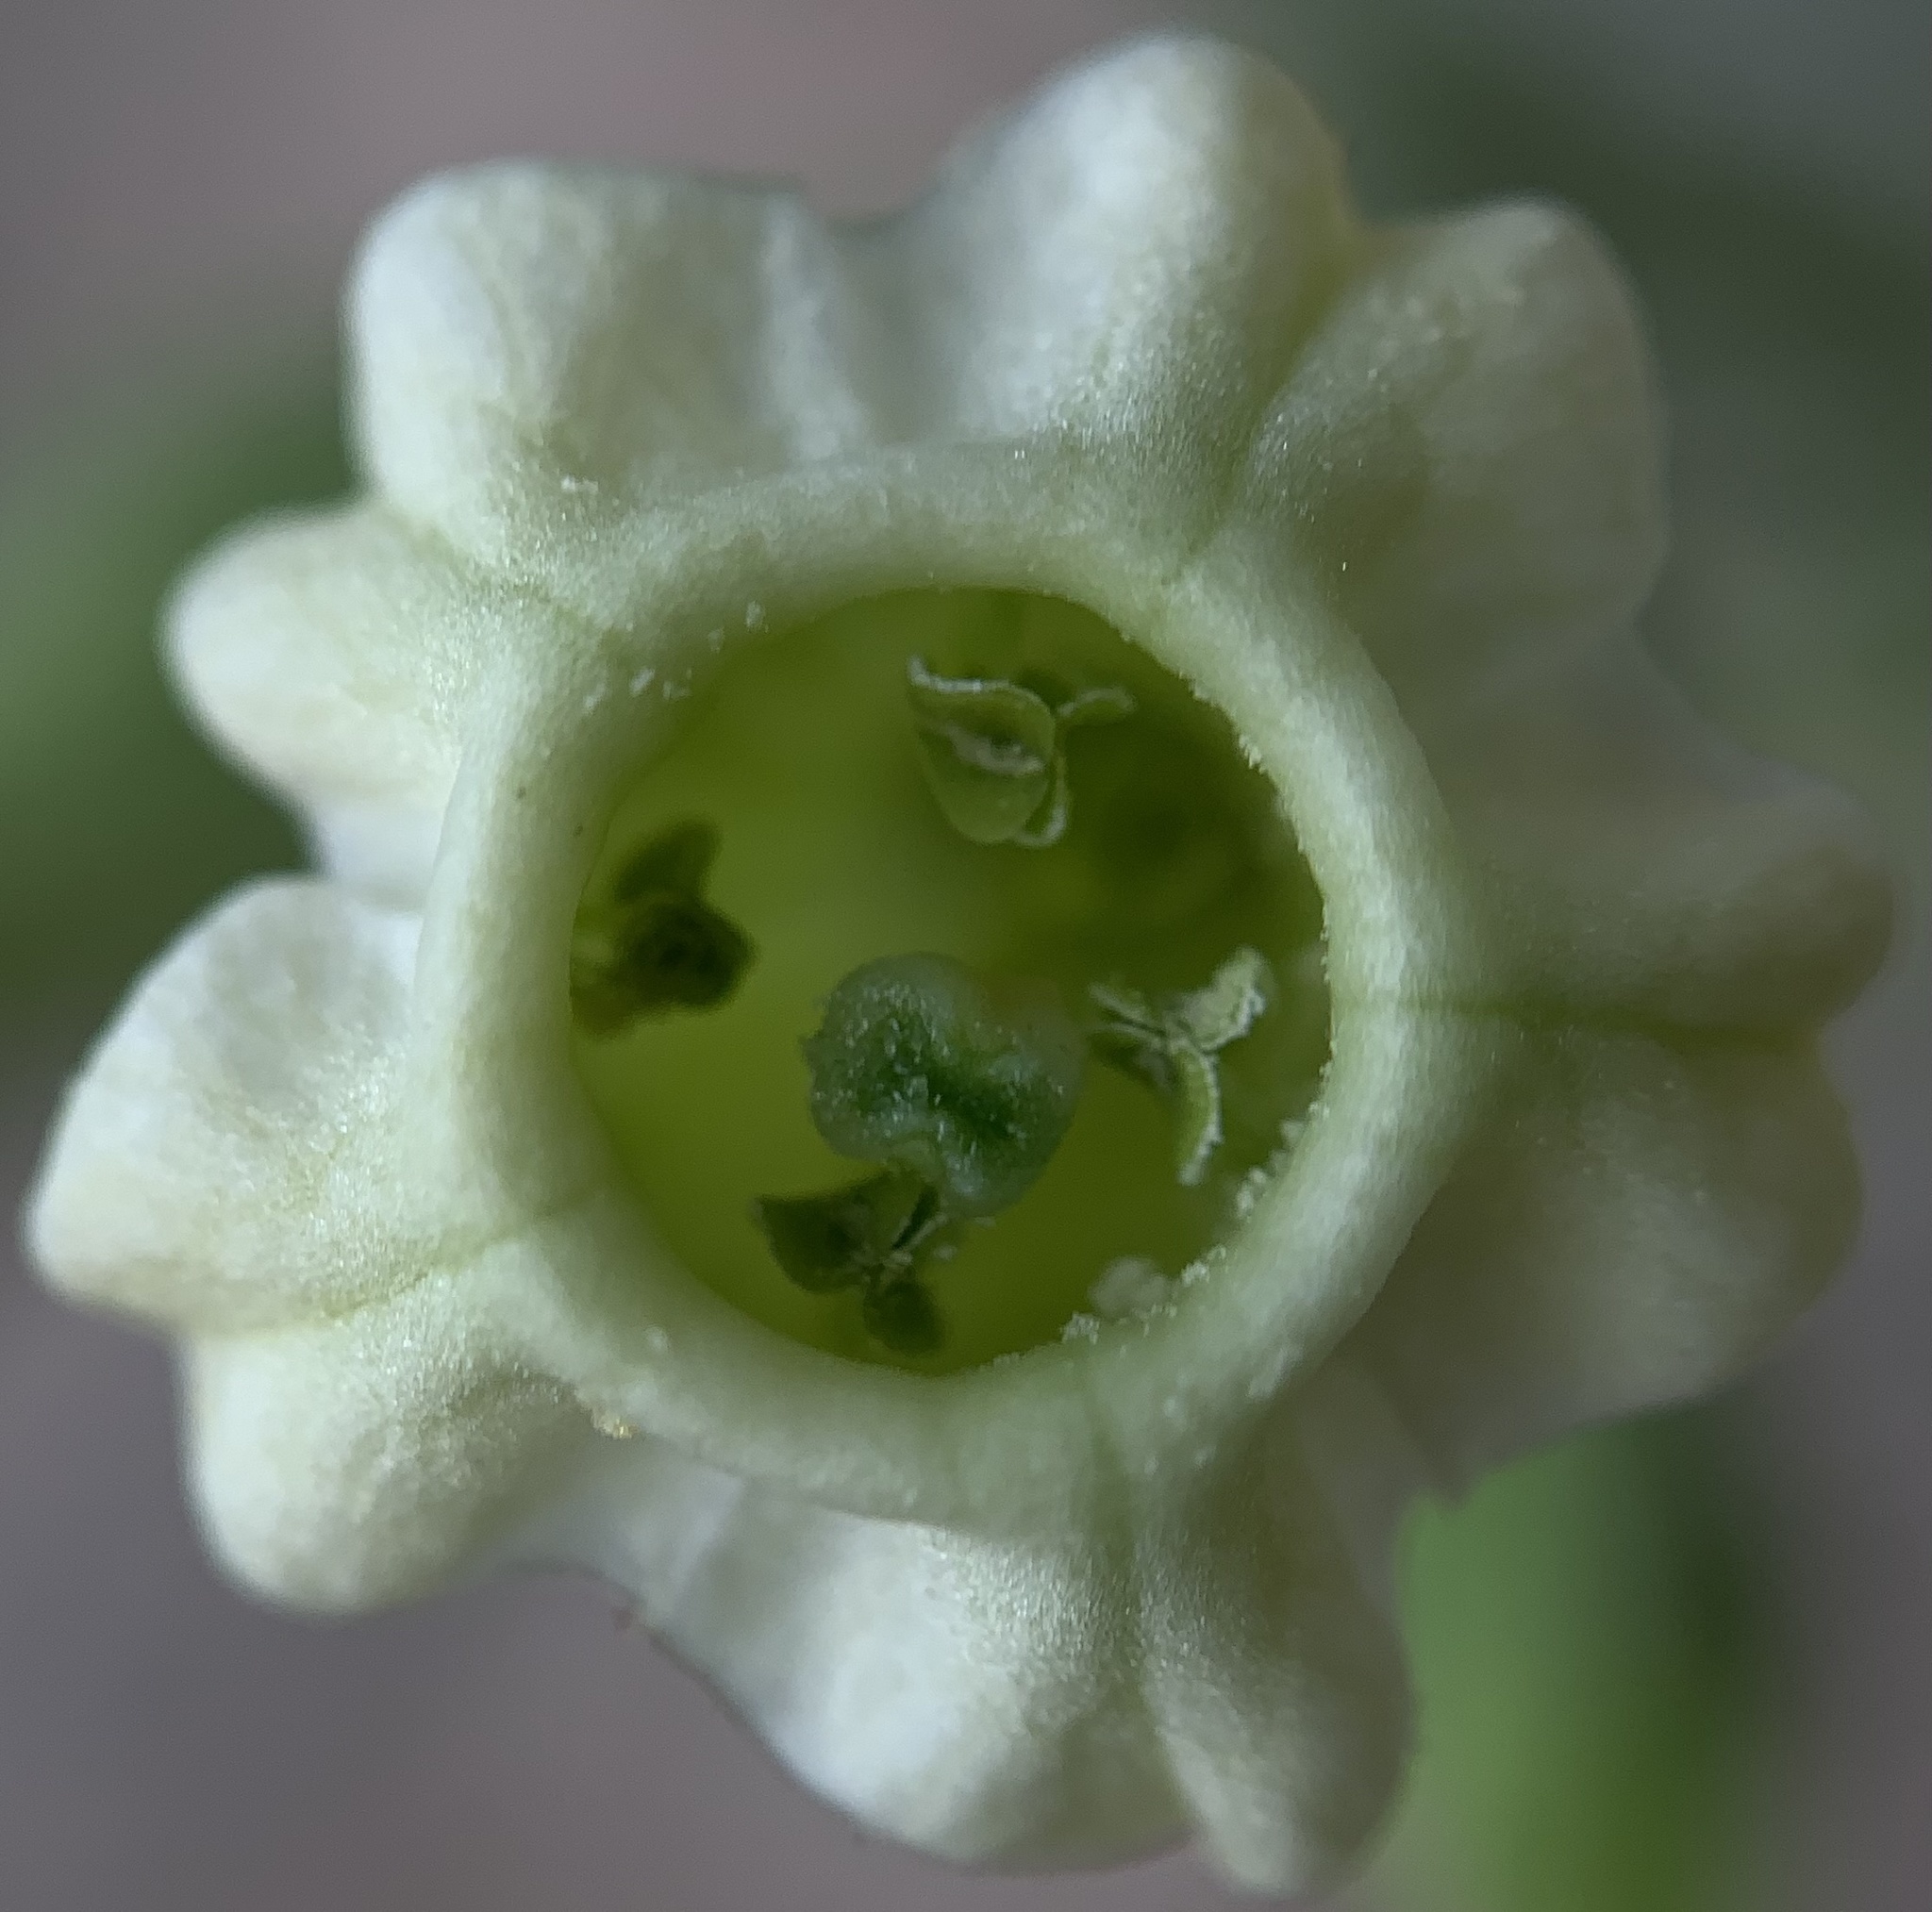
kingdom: Plantae
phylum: Tracheophyta
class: Magnoliopsida
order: Solanales
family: Solanaceae
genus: Nicotiana
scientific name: Nicotiana obtusifolia
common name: Desert tobacco
